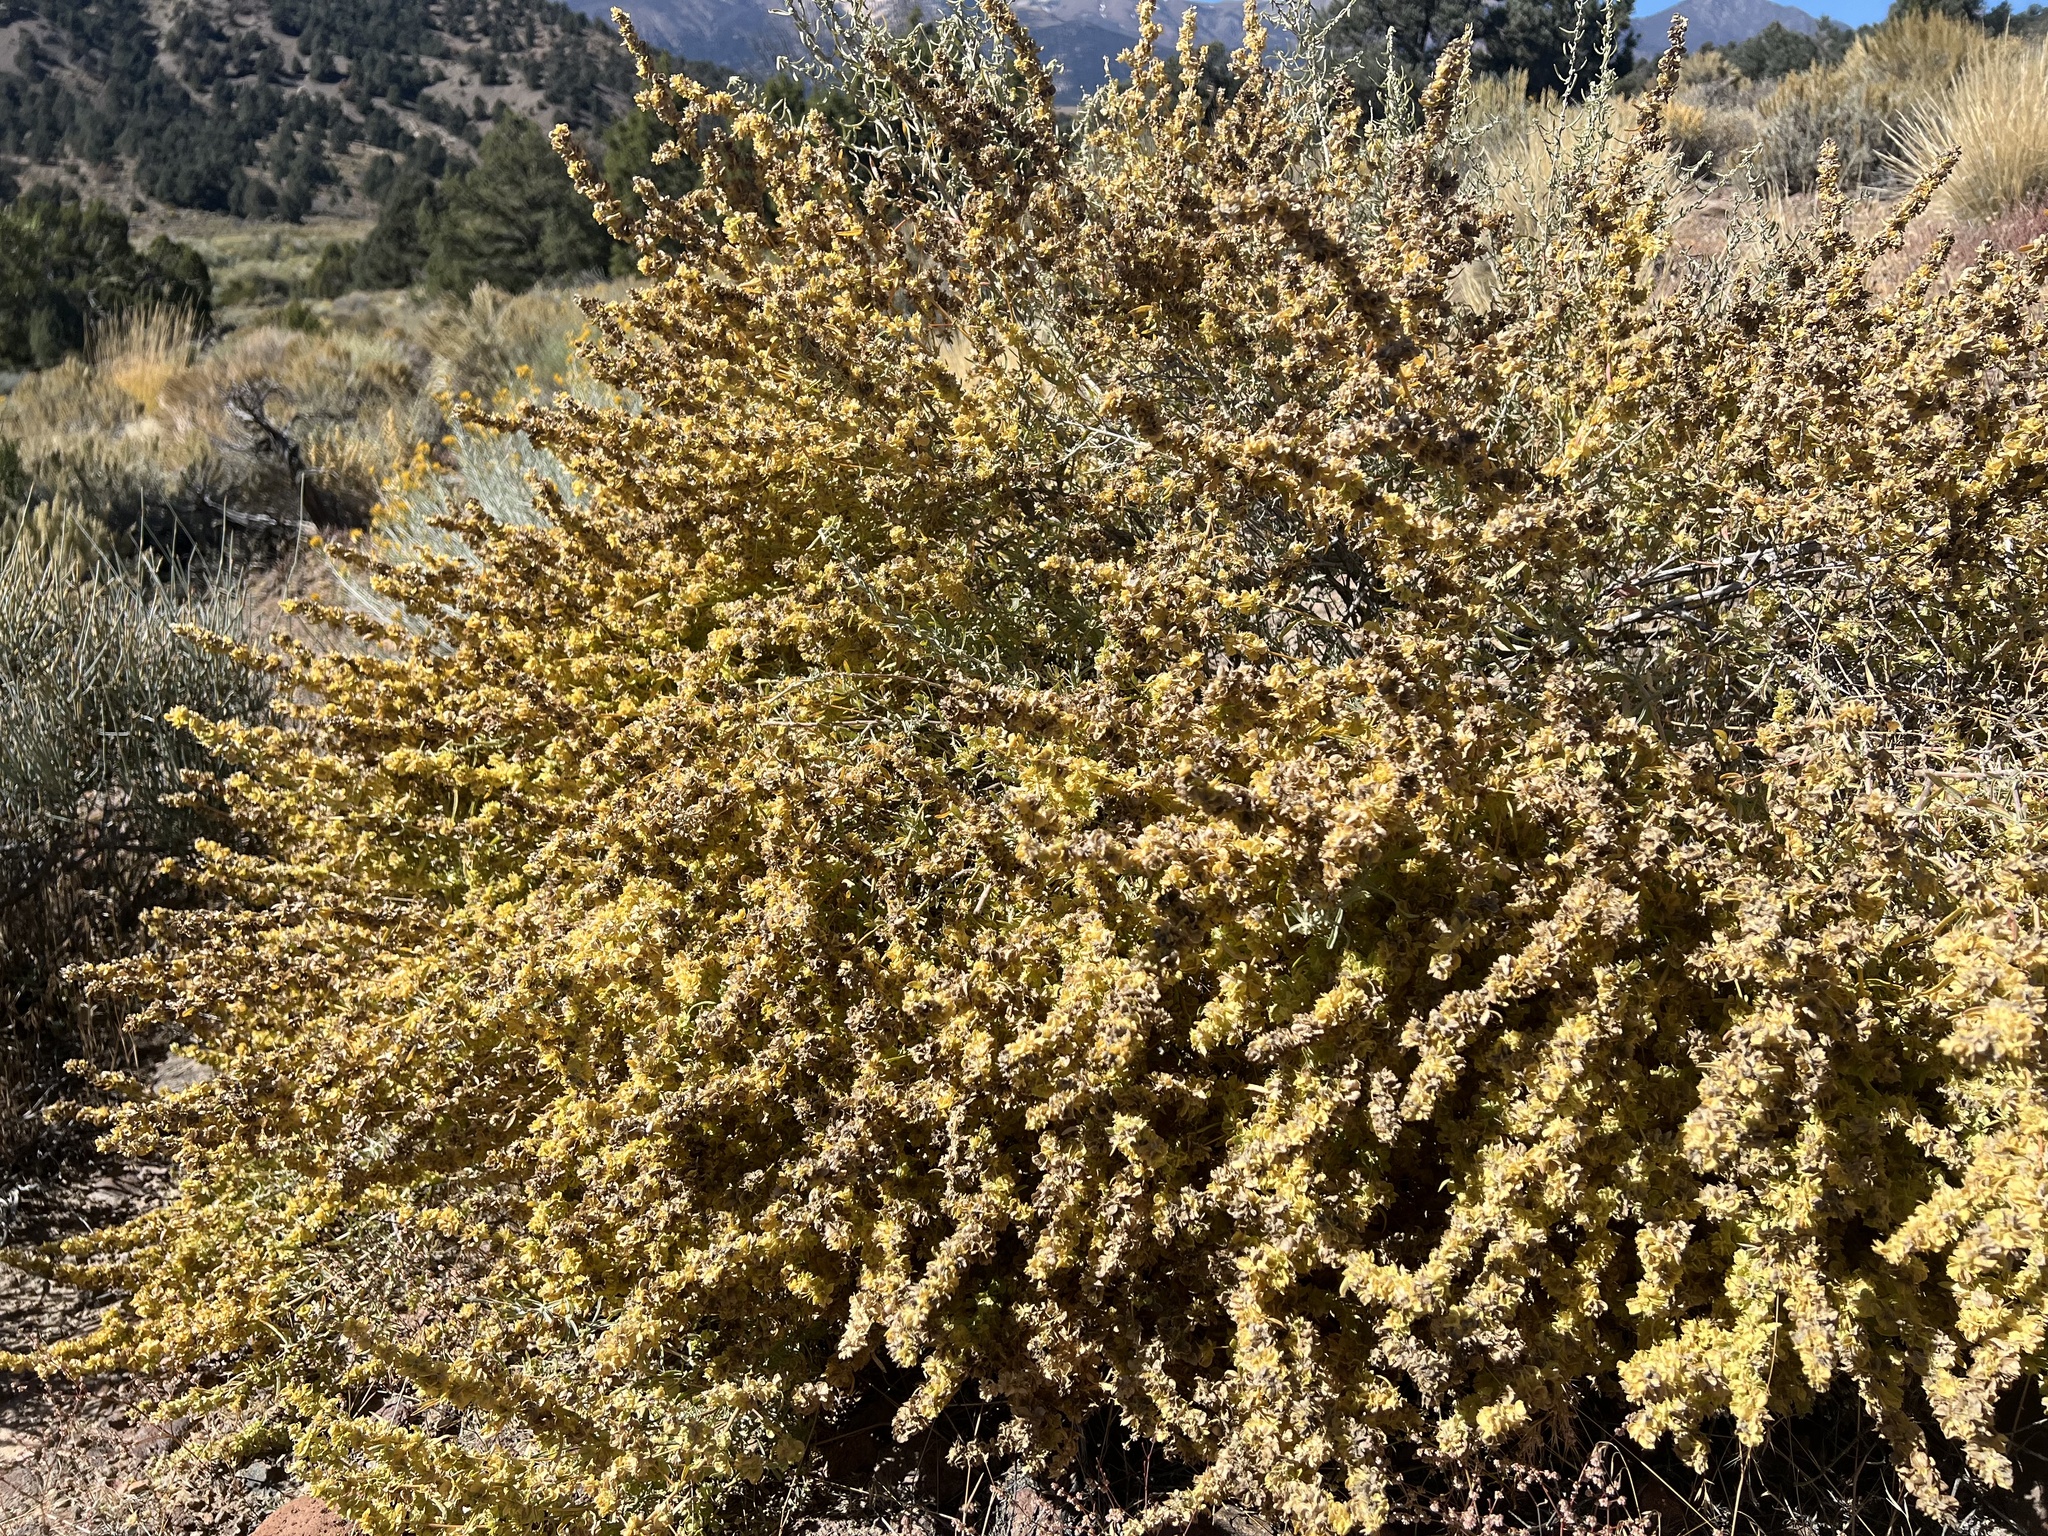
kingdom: Plantae
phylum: Tracheophyta
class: Magnoliopsida
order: Caryophyllales
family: Amaranthaceae
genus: Atriplex
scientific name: Atriplex canescens
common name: Four-wing saltbush
